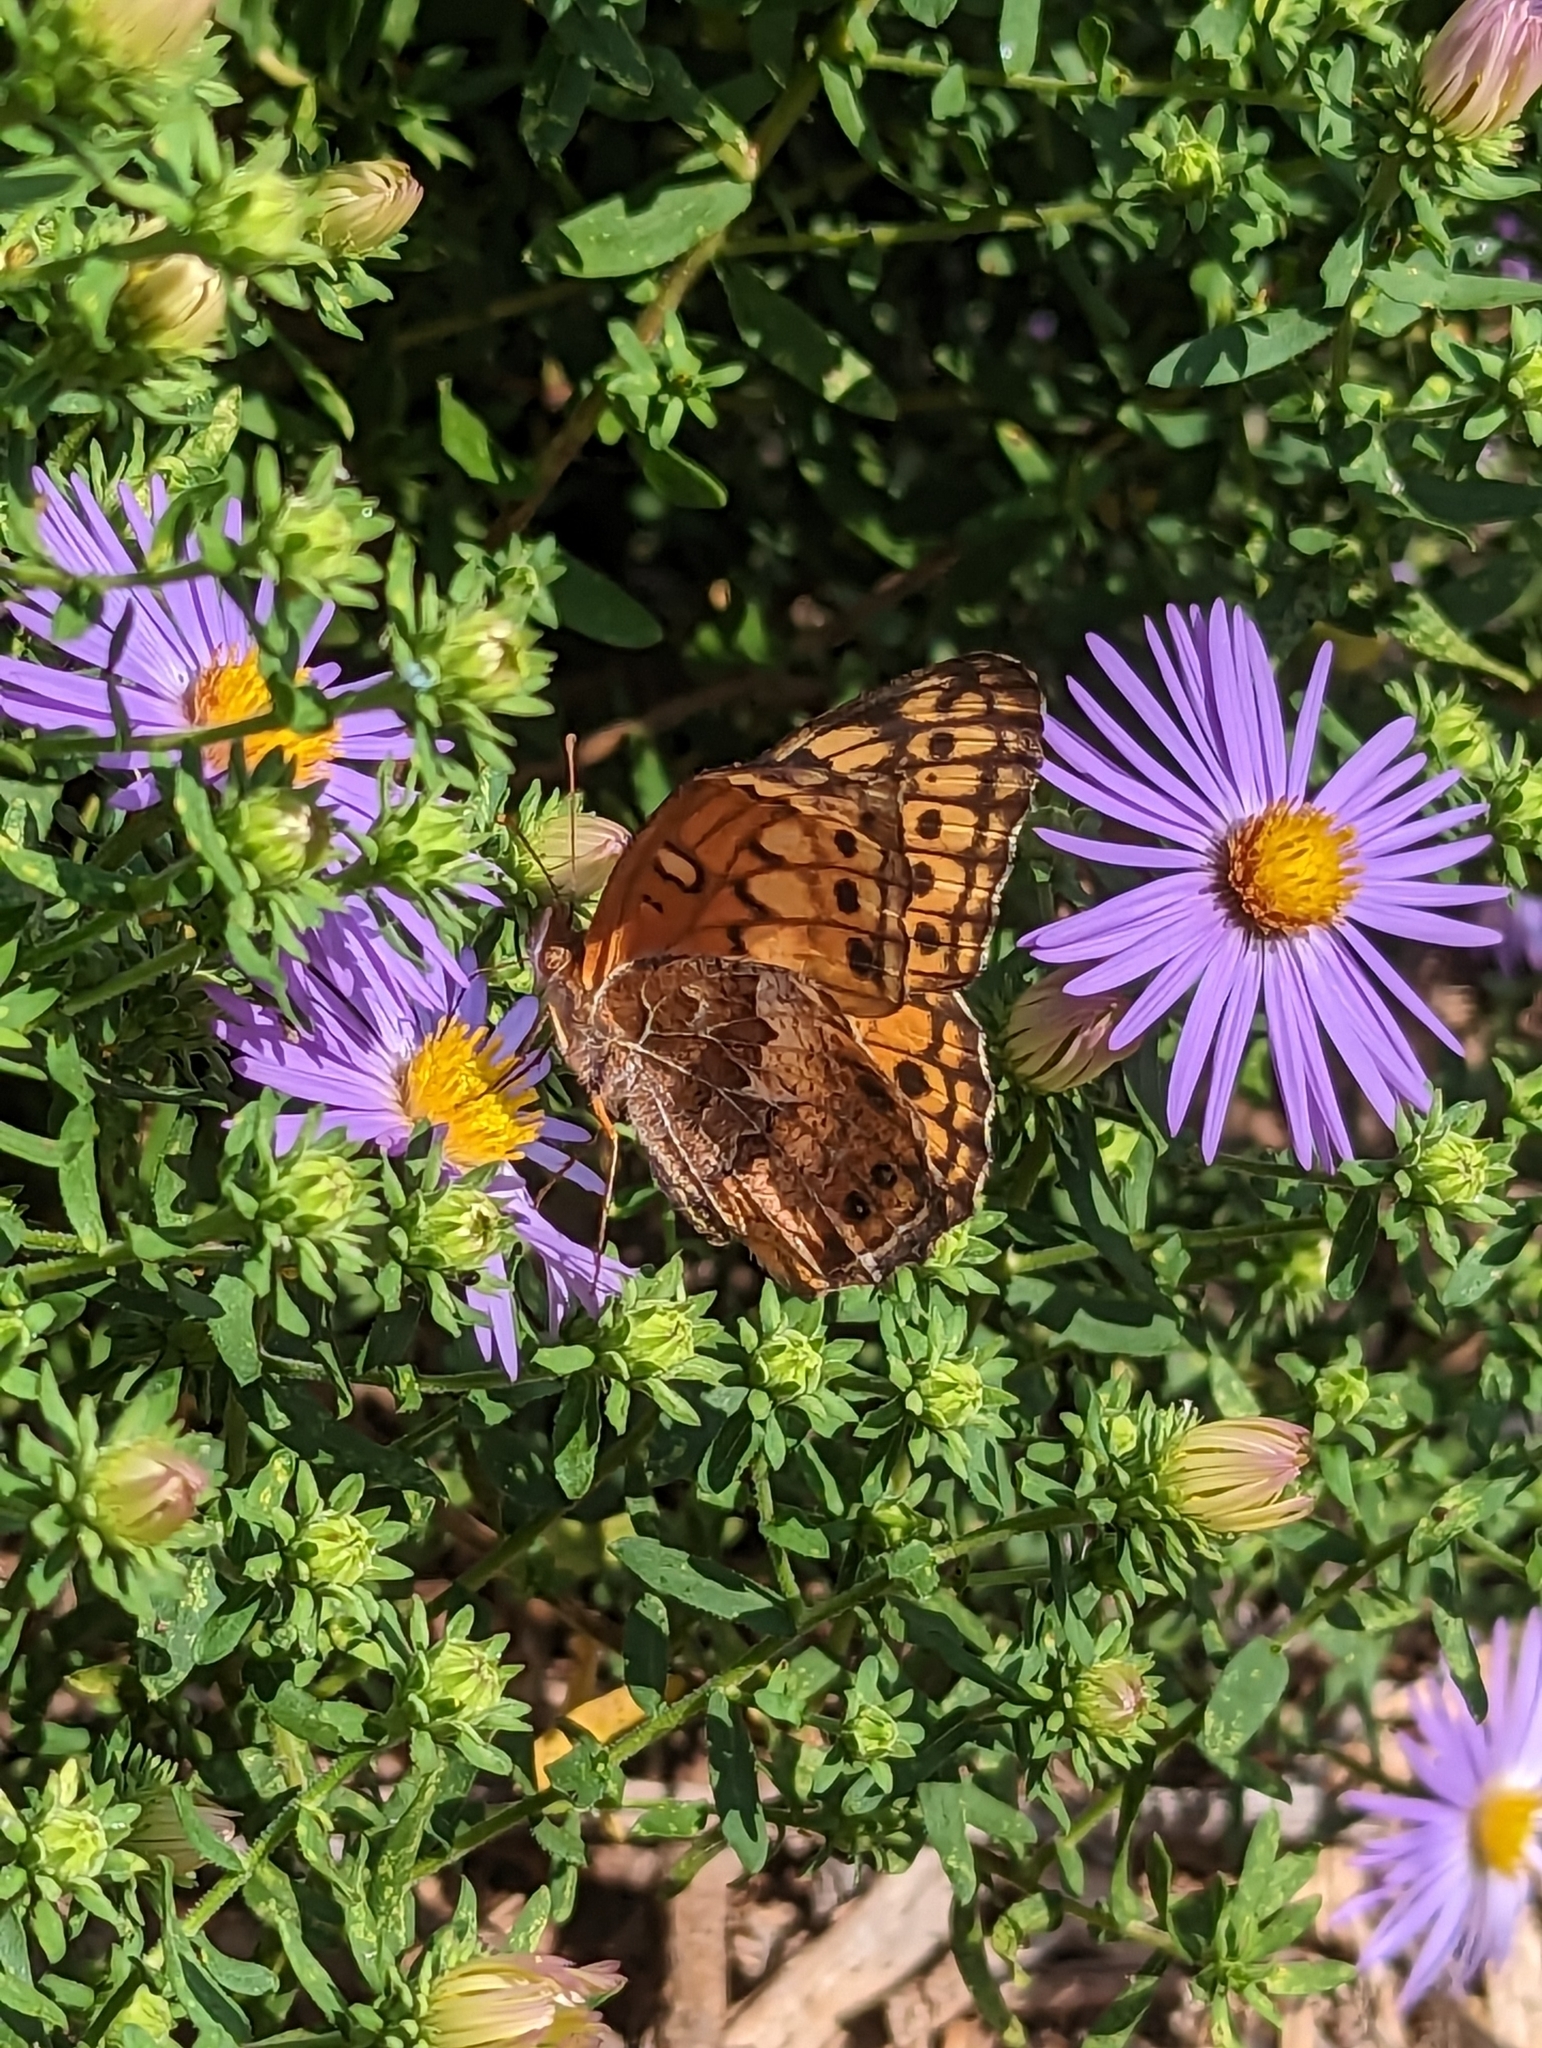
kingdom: Animalia
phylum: Arthropoda
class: Insecta
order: Lepidoptera
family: Nymphalidae
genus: Euptoieta
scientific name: Euptoieta claudia
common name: Variegated fritillary
